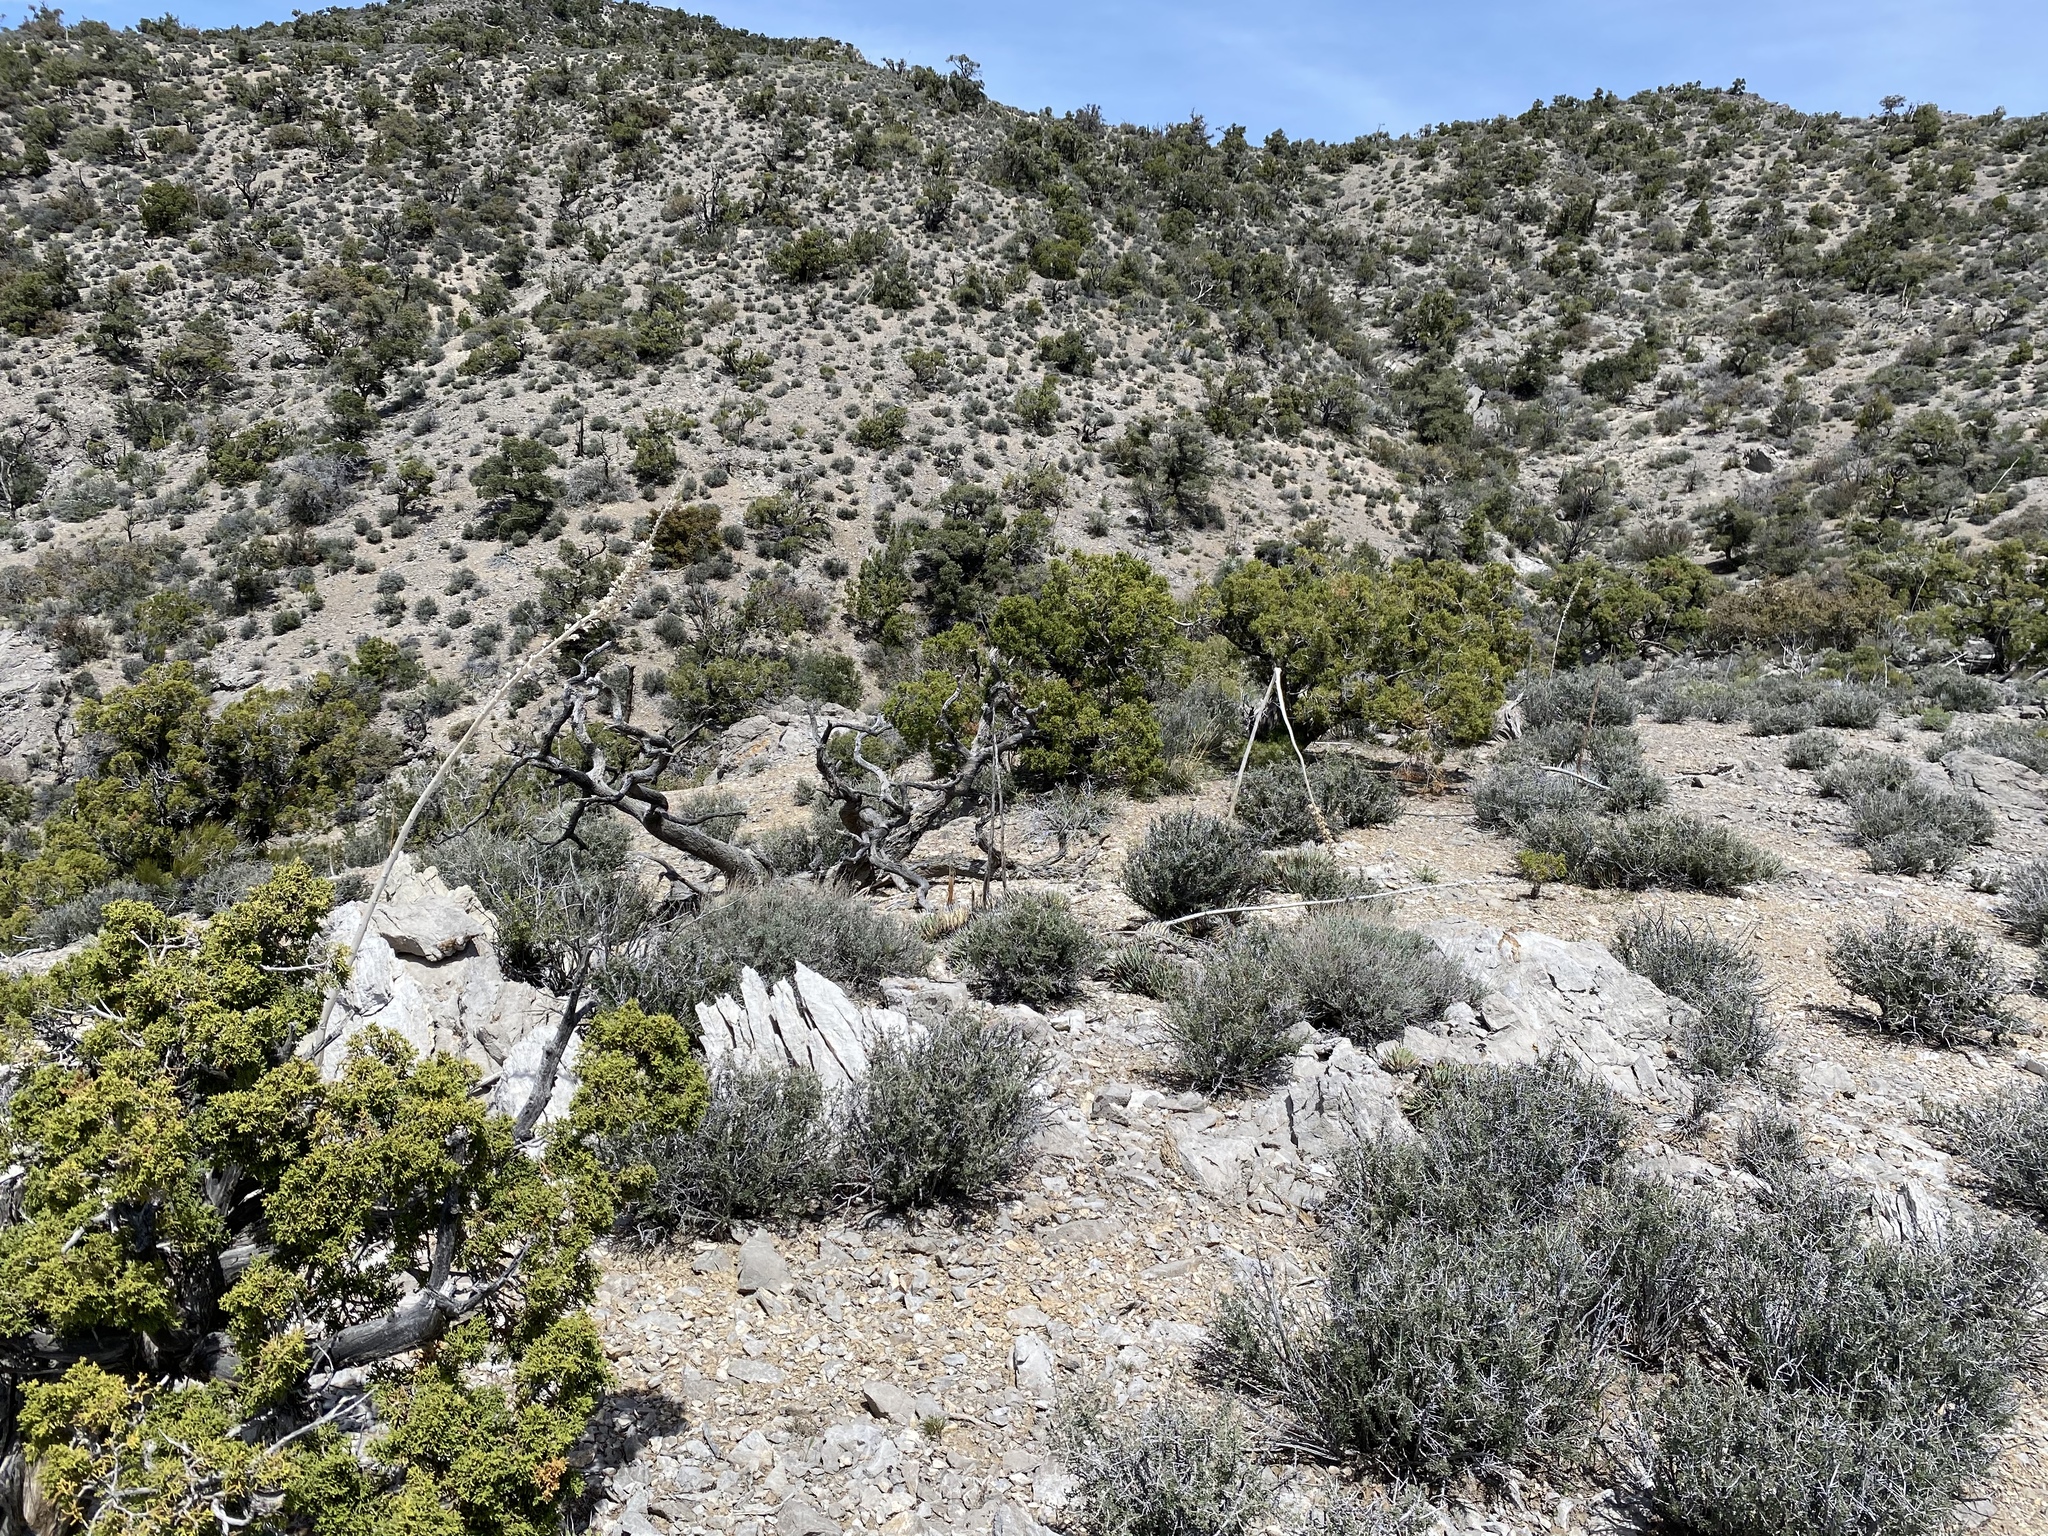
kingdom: Plantae
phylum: Tracheophyta
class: Magnoliopsida
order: Caryophyllales
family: Montiaceae
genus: Lewisia
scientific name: Lewisia maguirei
